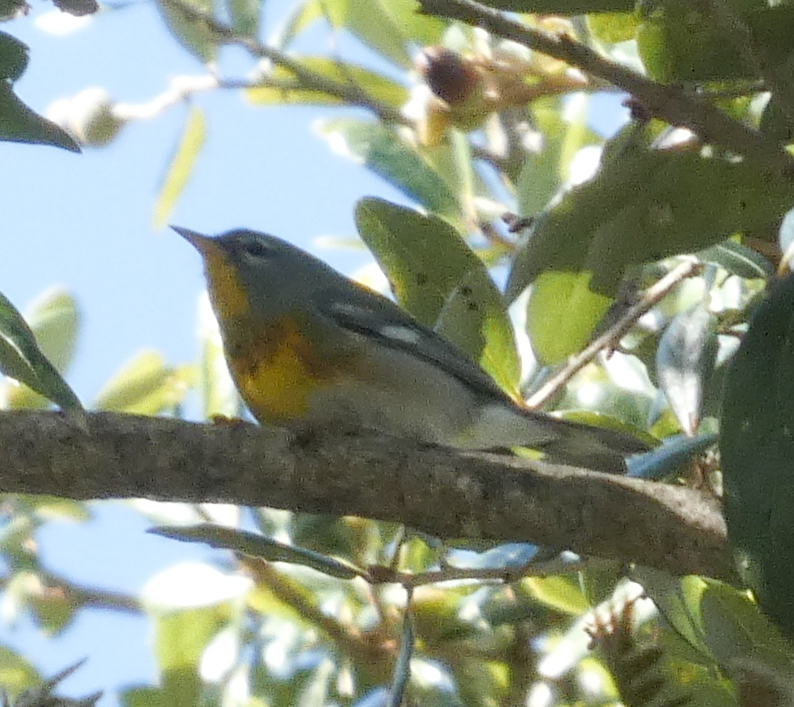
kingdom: Animalia
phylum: Chordata
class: Aves
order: Passeriformes
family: Parulidae
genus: Setophaga
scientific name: Setophaga americana
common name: Northern parula
